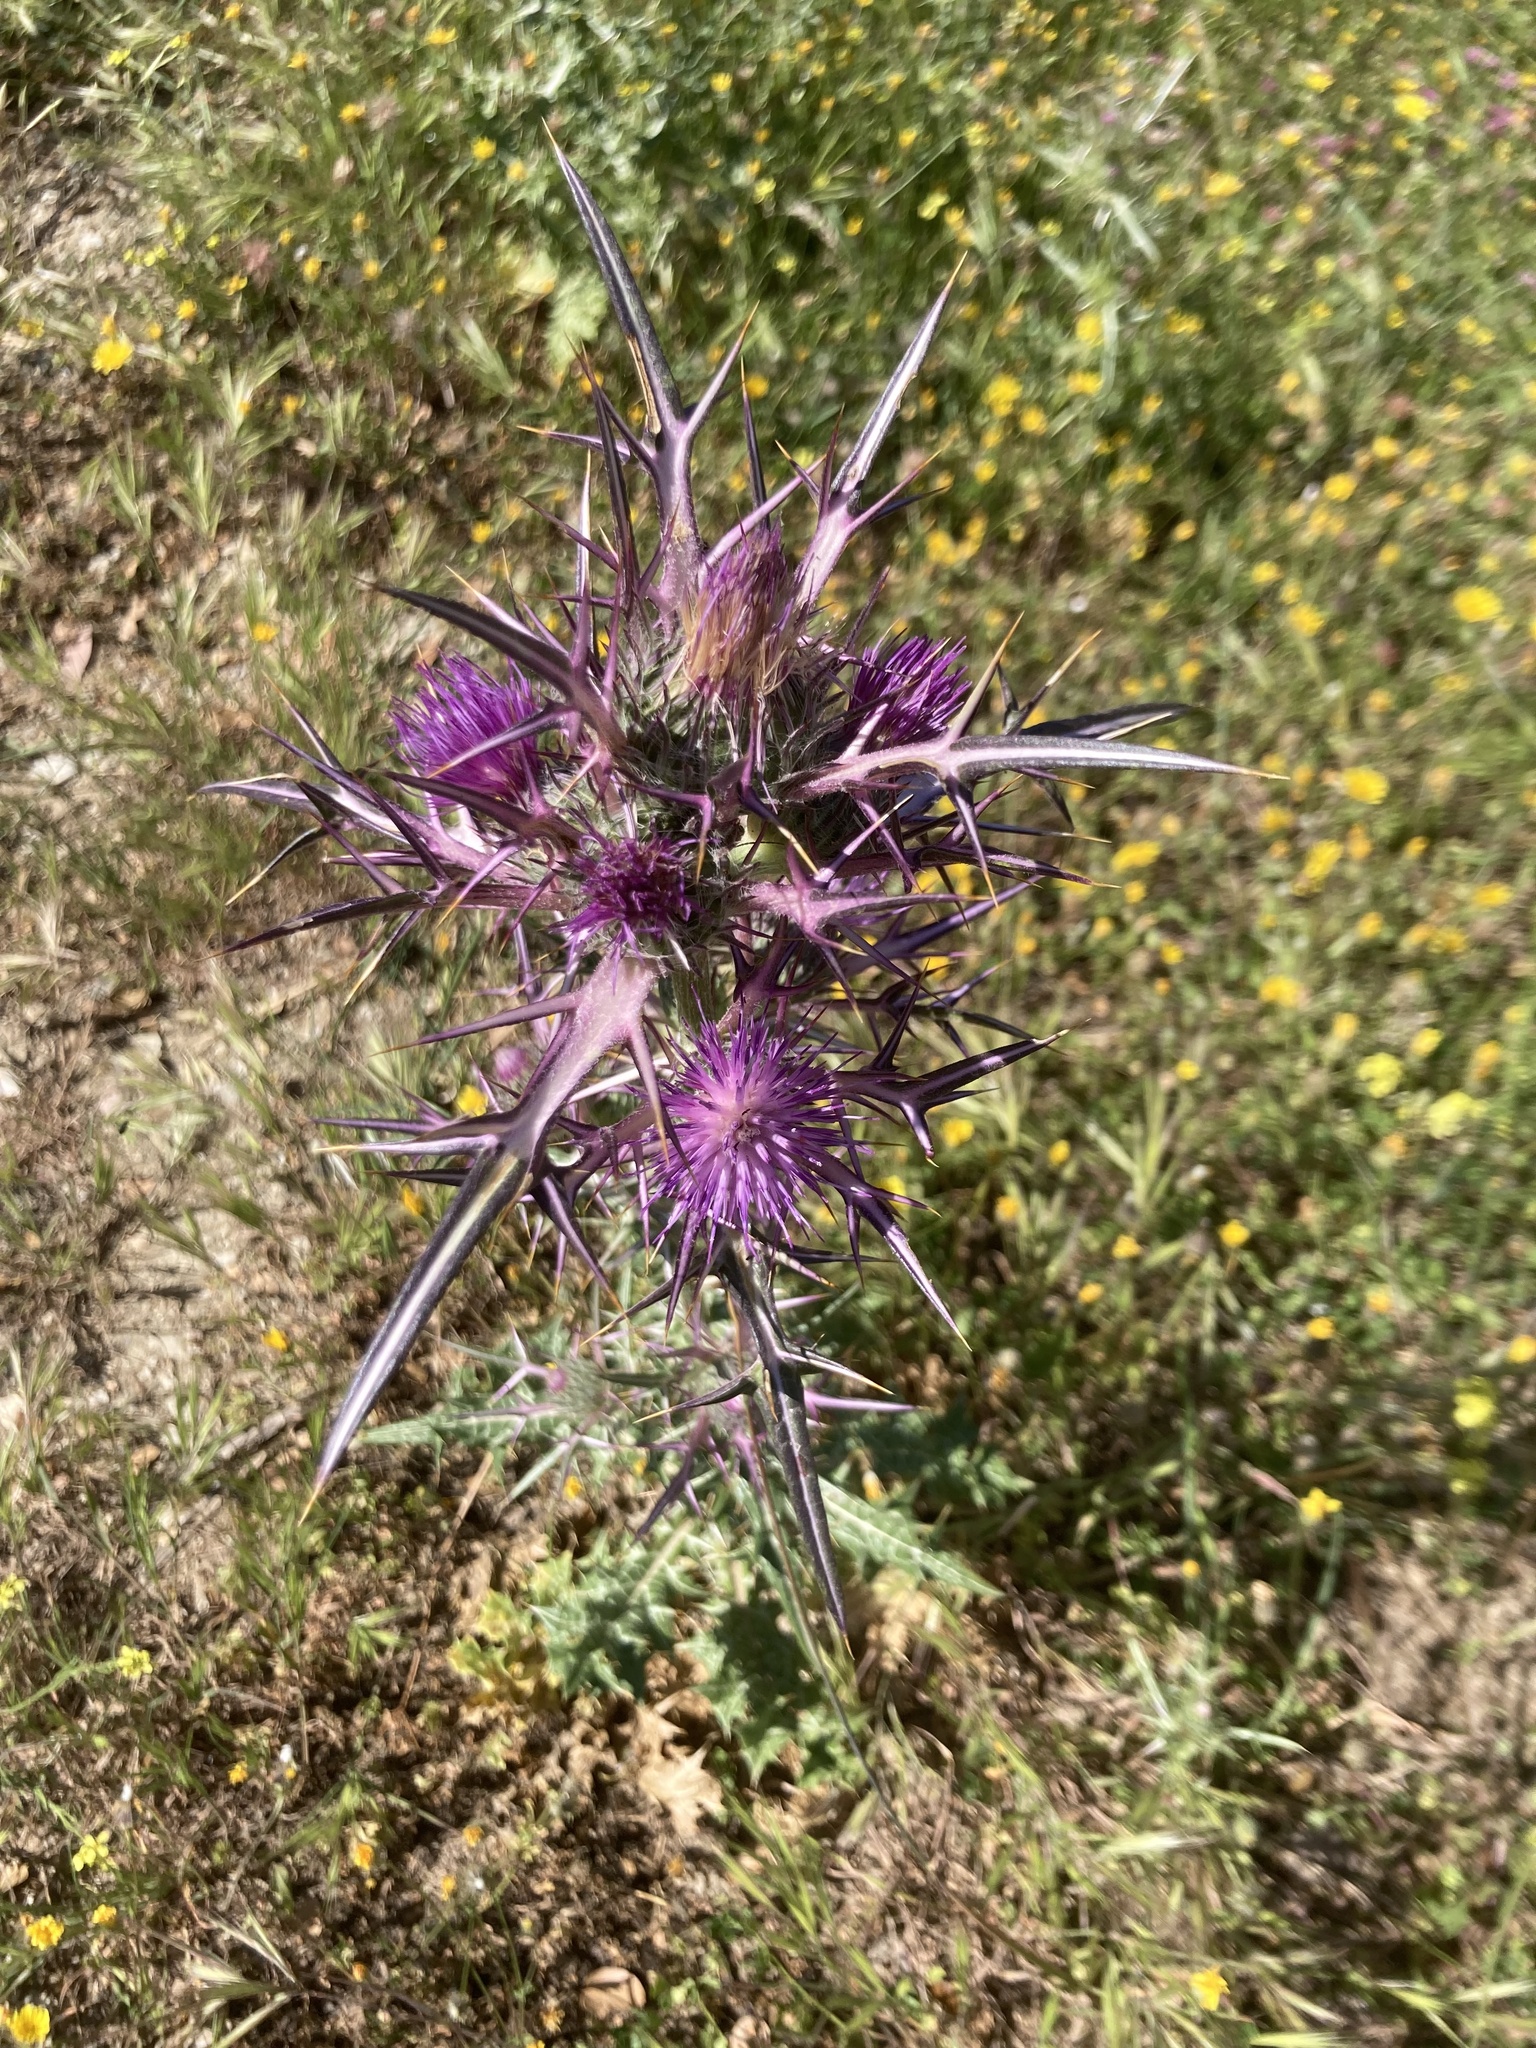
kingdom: Plantae
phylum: Tracheophyta
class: Magnoliopsida
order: Asterales
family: Asteraceae
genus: Notobasis
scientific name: Notobasis syriaca
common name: Syrian thistle
